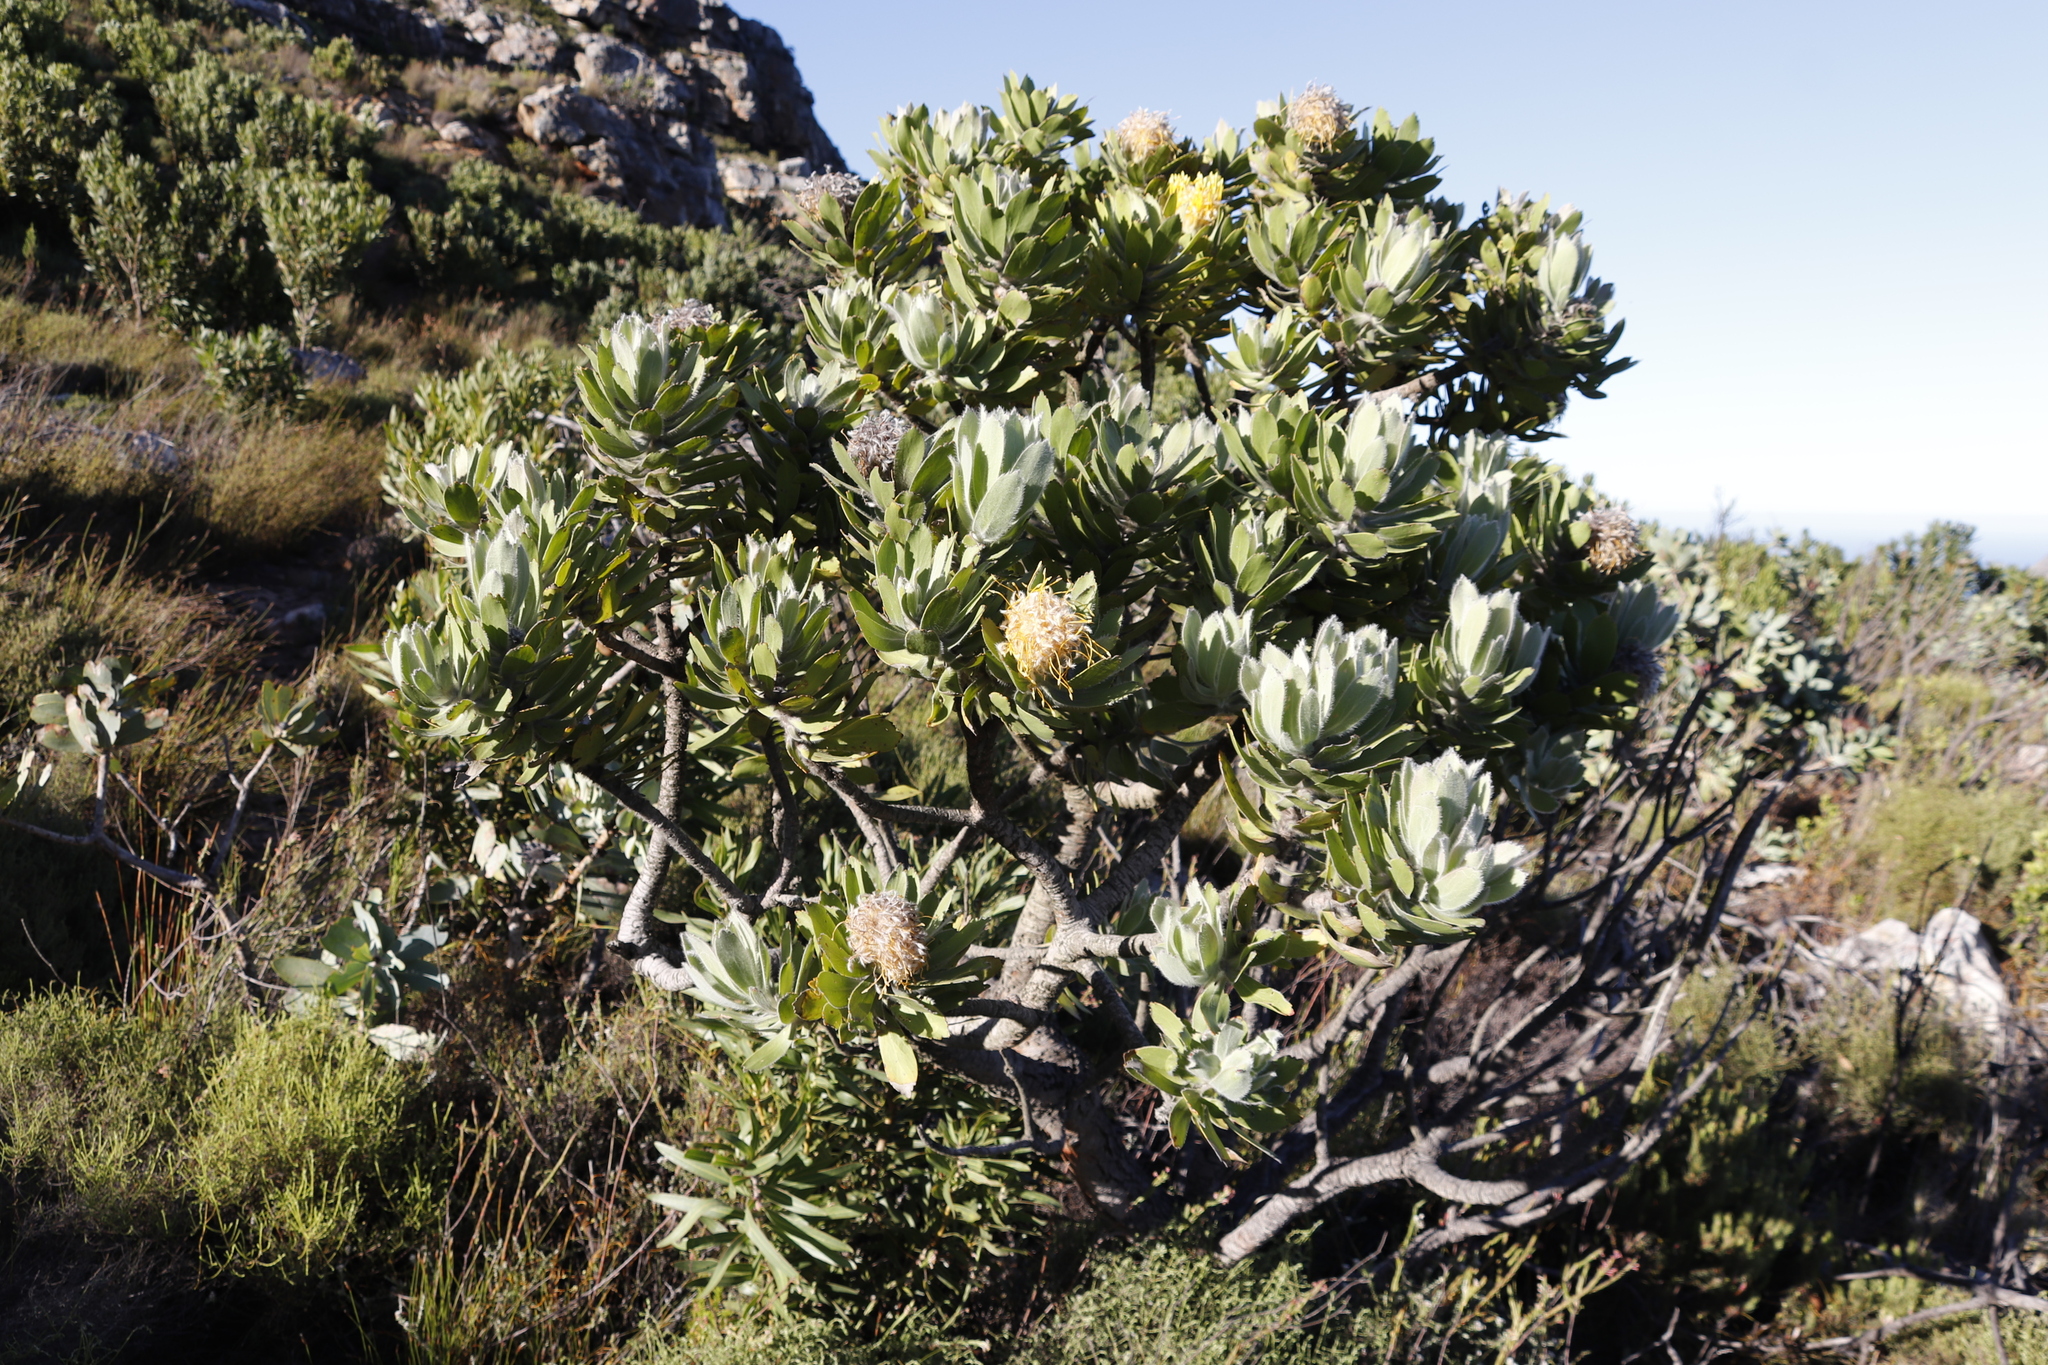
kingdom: Plantae
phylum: Tracheophyta
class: Magnoliopsida
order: Proteales
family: Proteaceae
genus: Leucospermum
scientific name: Leucospermum conocarpodendron
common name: Tree pincushion
